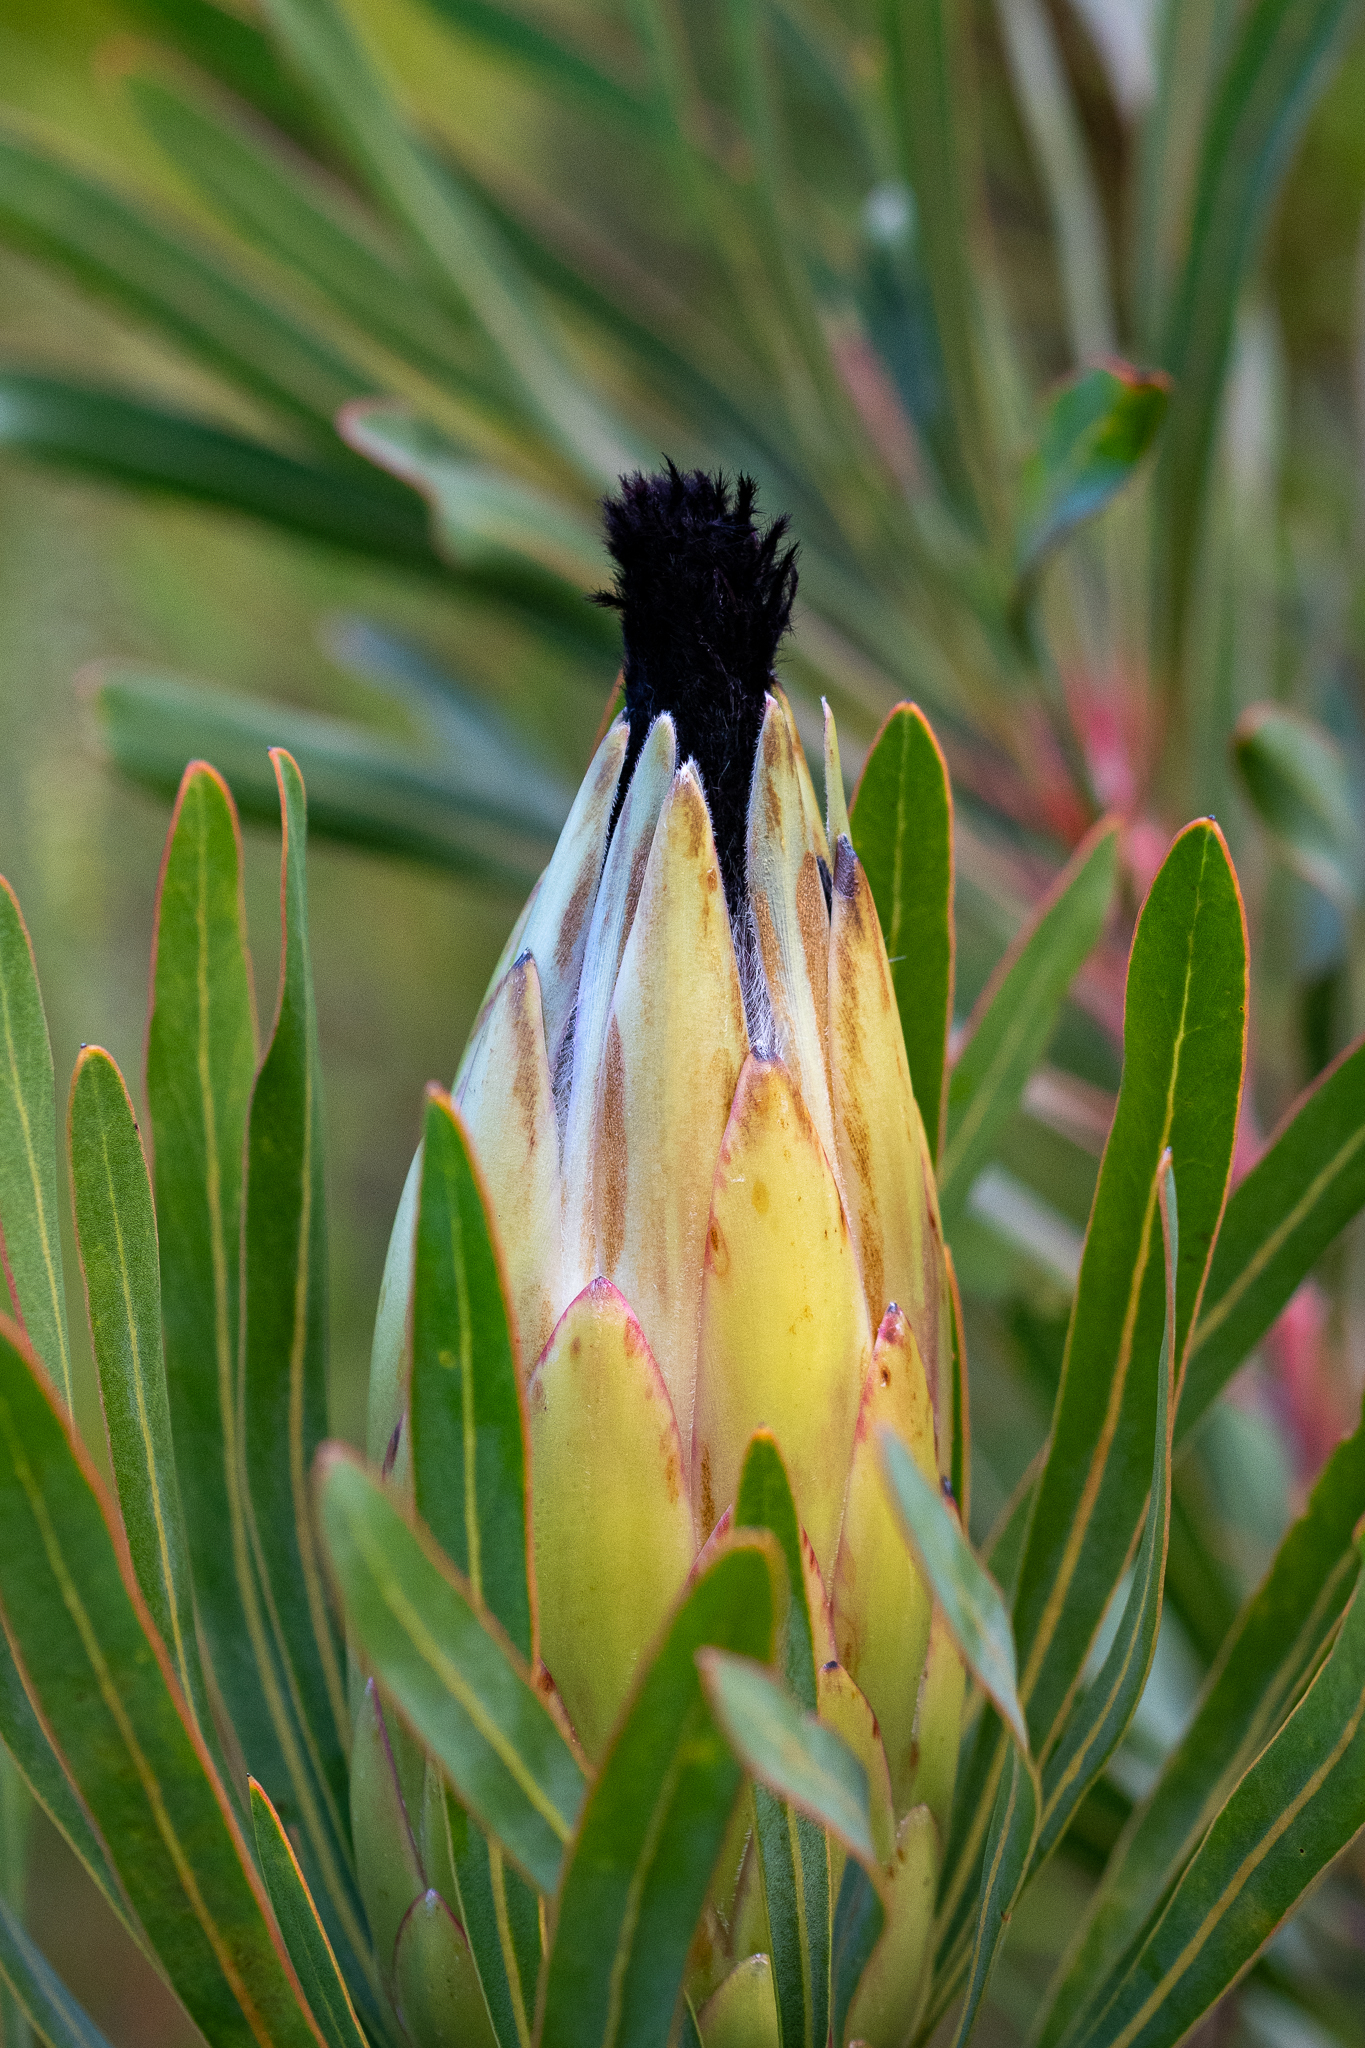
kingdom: Plantae
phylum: Tracheophyta
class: Magnoliopsida
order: Proteales
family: Proteaceae
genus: Protea
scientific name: Protea longifolia
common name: Long-leaf sugarbush
